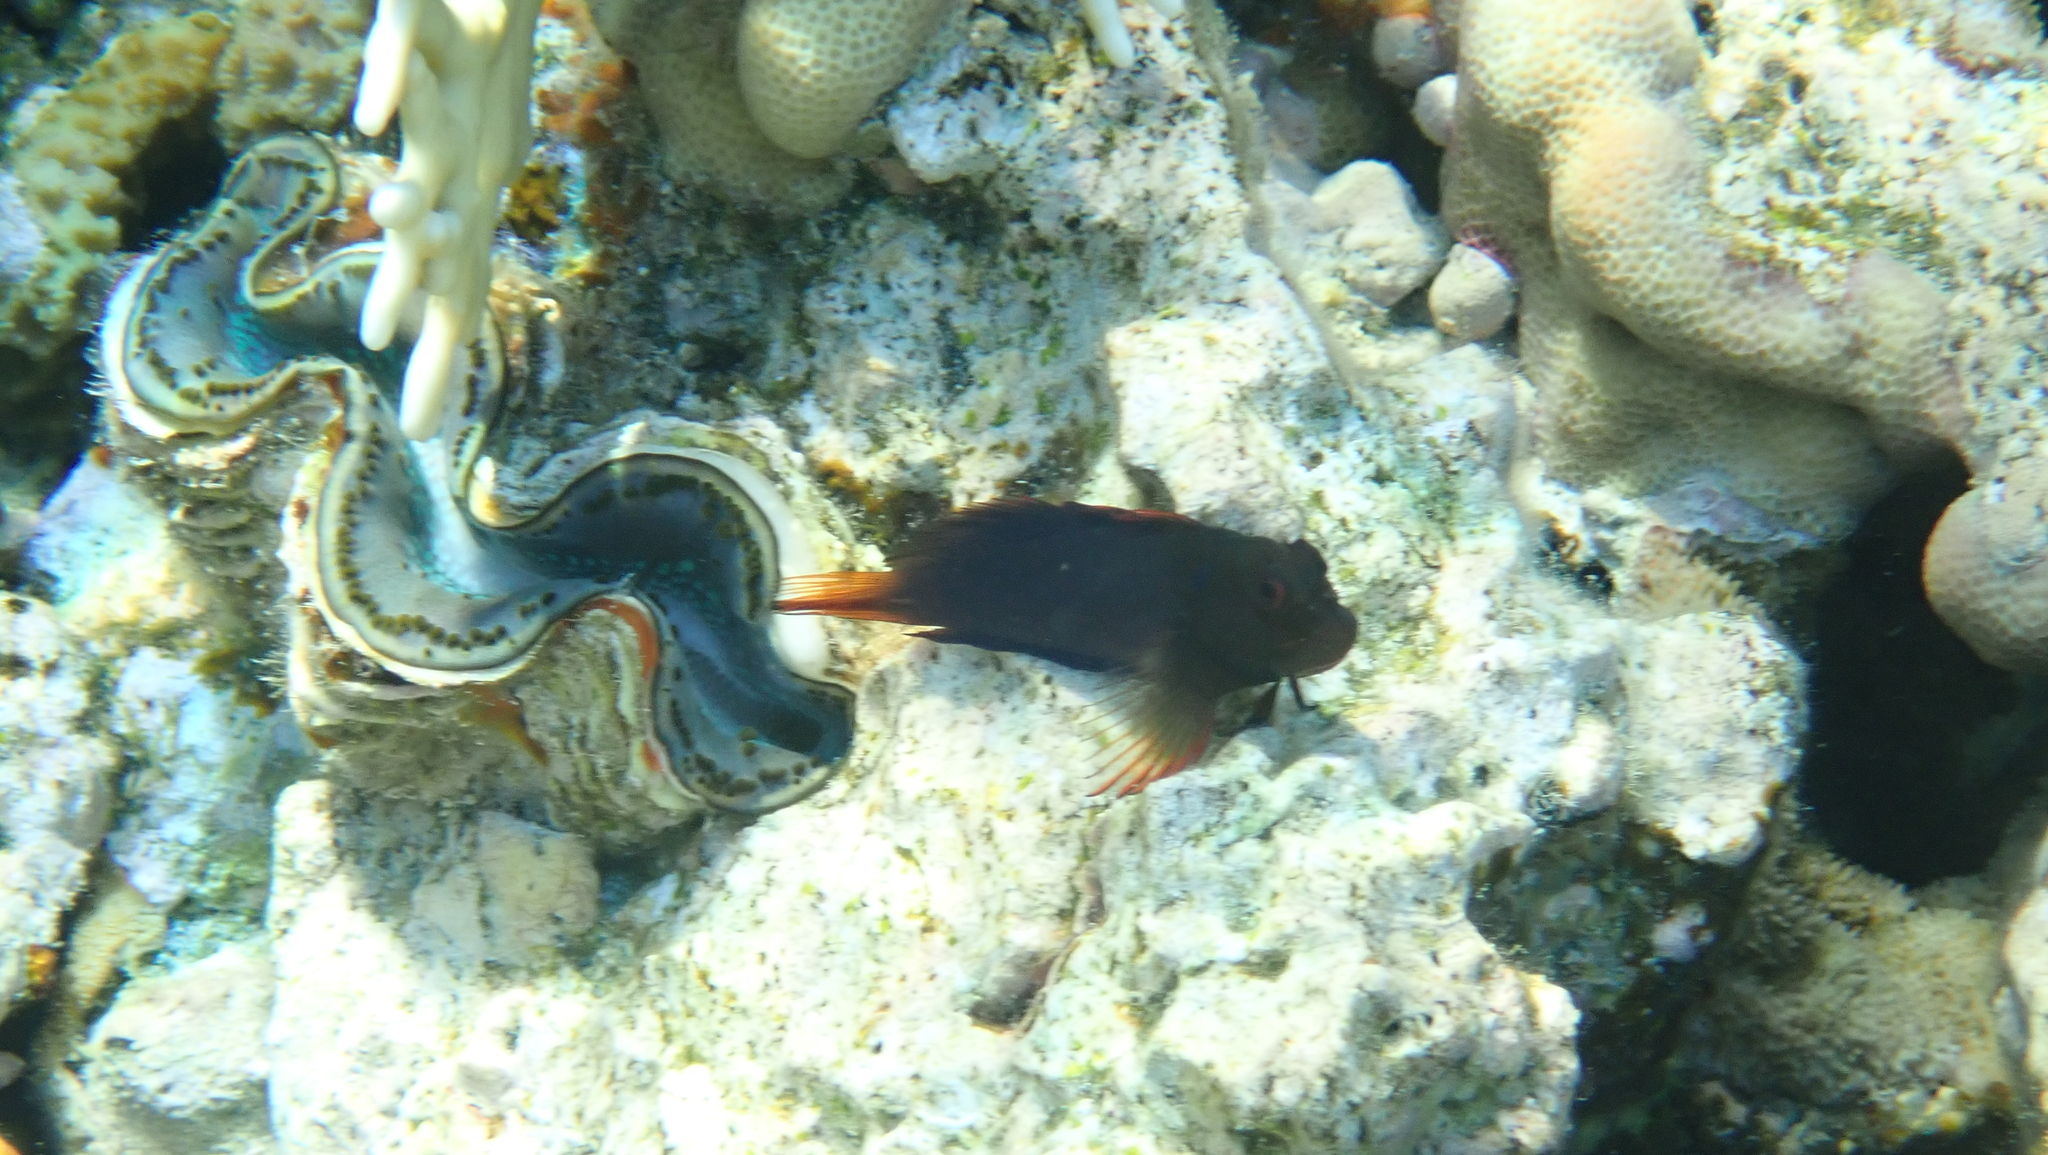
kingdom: Animalia
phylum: Chordata
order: Perciformes
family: Blenniidae
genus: Cirripectes
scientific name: Cirripectes castaneus
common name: Chestnut blenny
